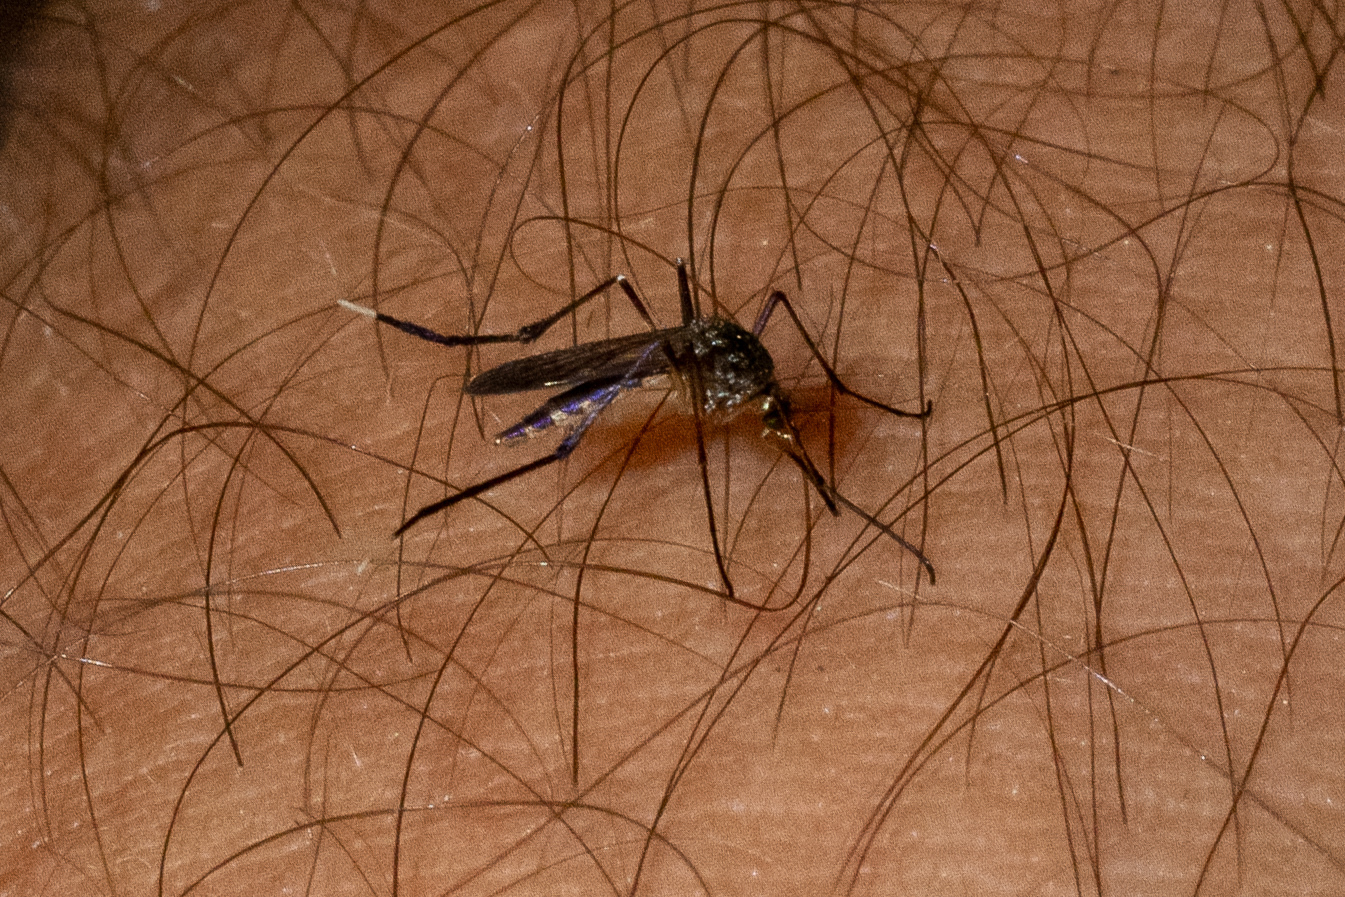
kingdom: Animalia
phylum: Arthropoda
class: Insecta
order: Diptera
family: Culicidae
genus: Psorophora
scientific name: Psorophora ferox
